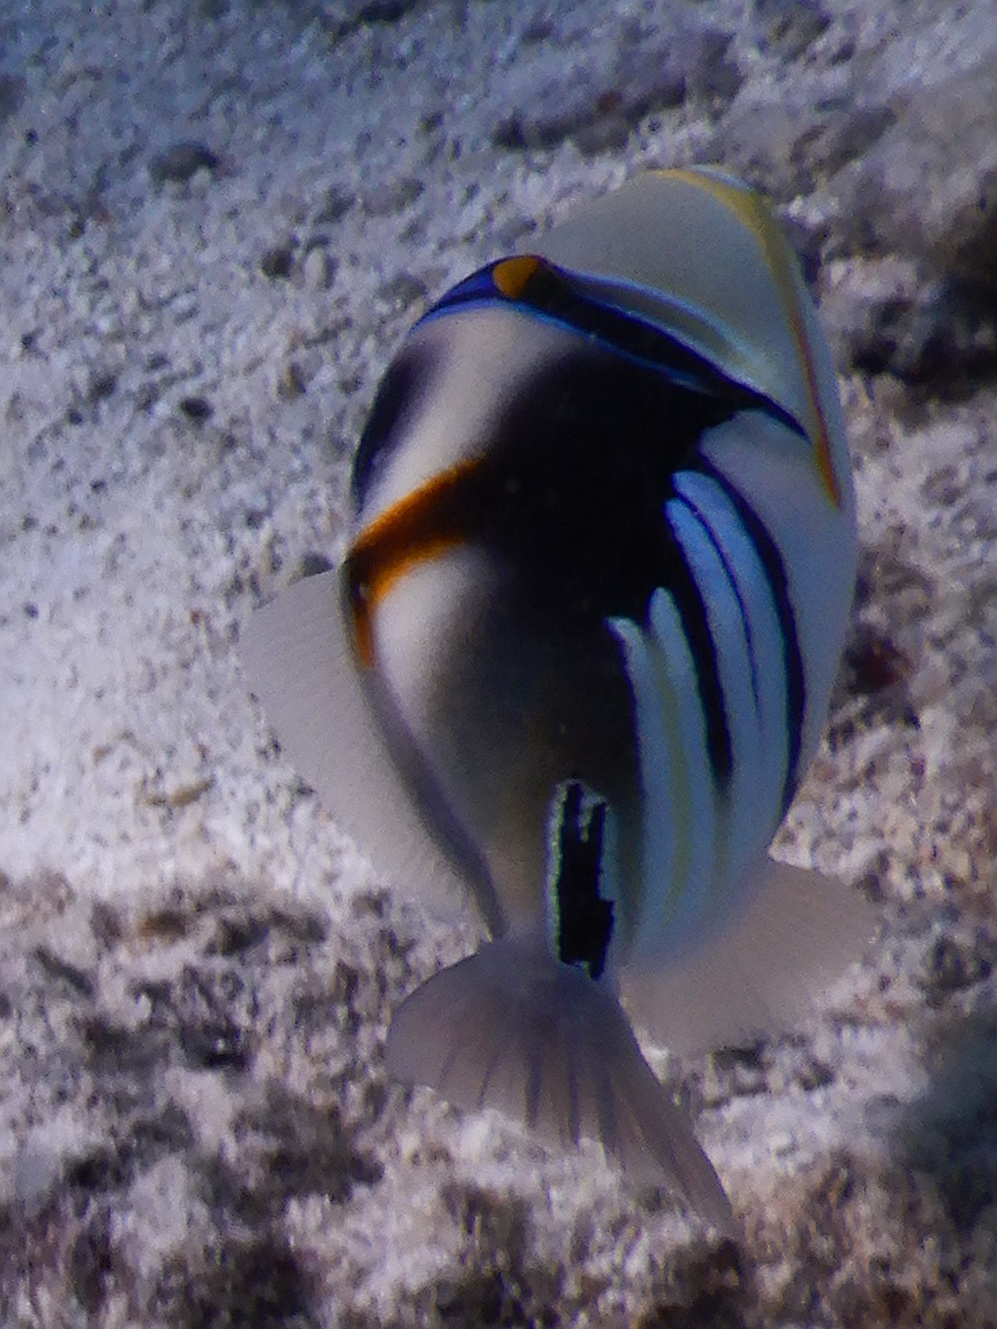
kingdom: Animalia
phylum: Chordata
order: Tetraodontiformes
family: Balistidae
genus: Rhinecanthus
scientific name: Rhinecanthus aculeatus
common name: White-banded triggerfish
